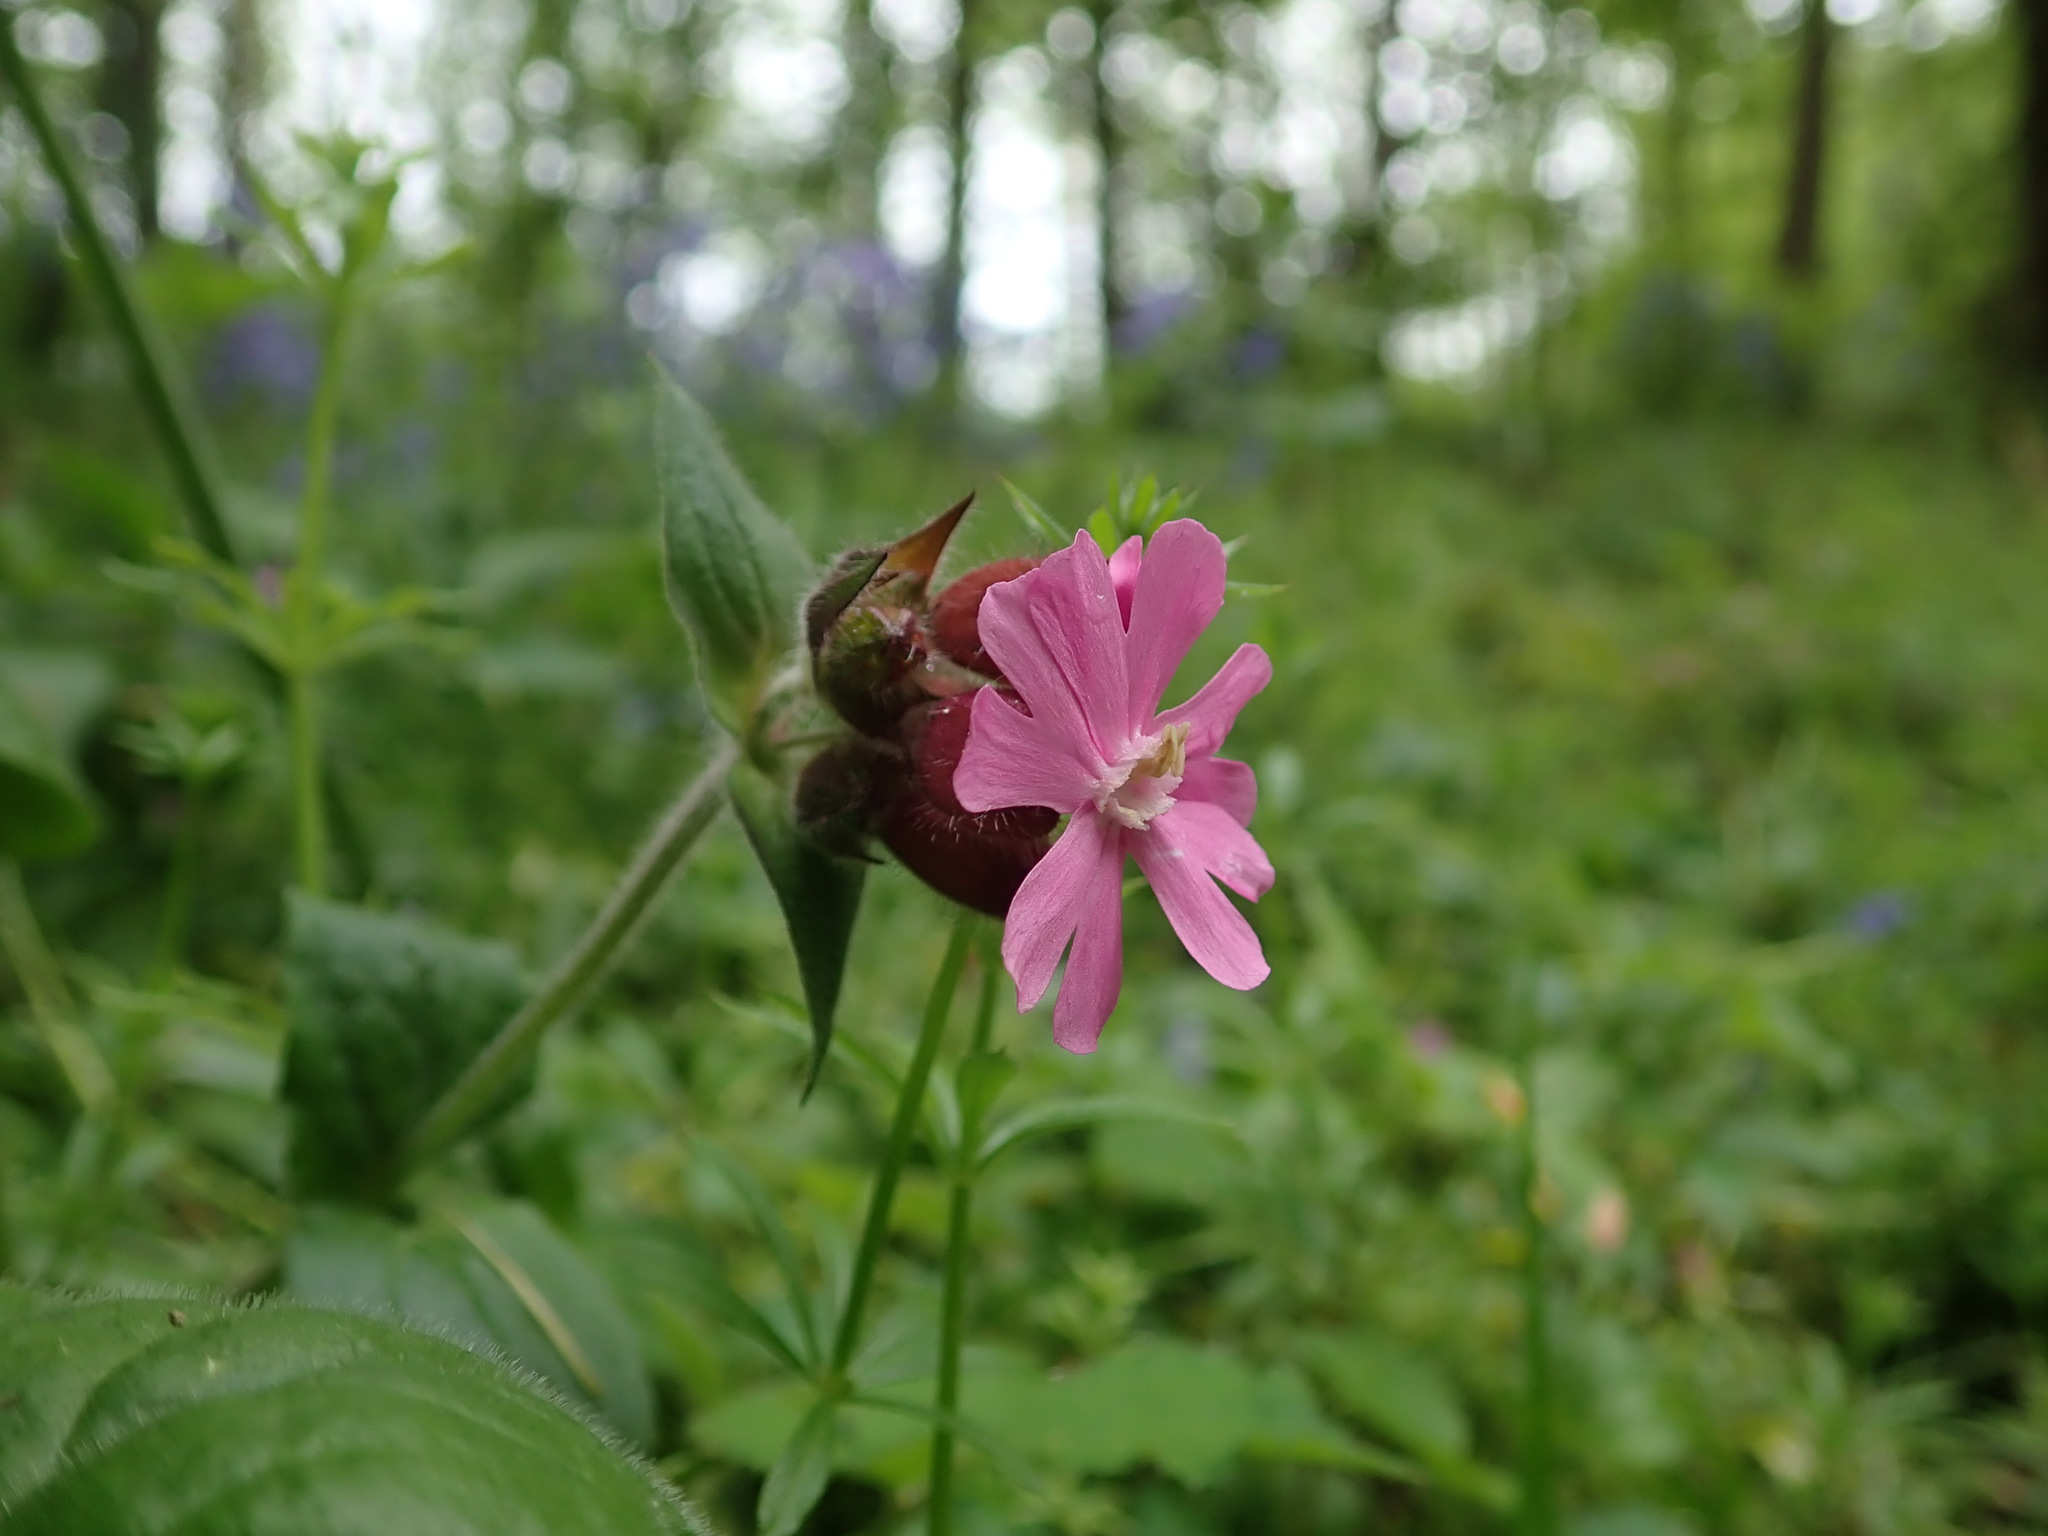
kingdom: Plantae
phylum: Tracheophyta
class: Magnoliopsida
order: Caryophyllales
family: Caryophyllaceae
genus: Silene
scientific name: Silene dioica
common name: Red campion
